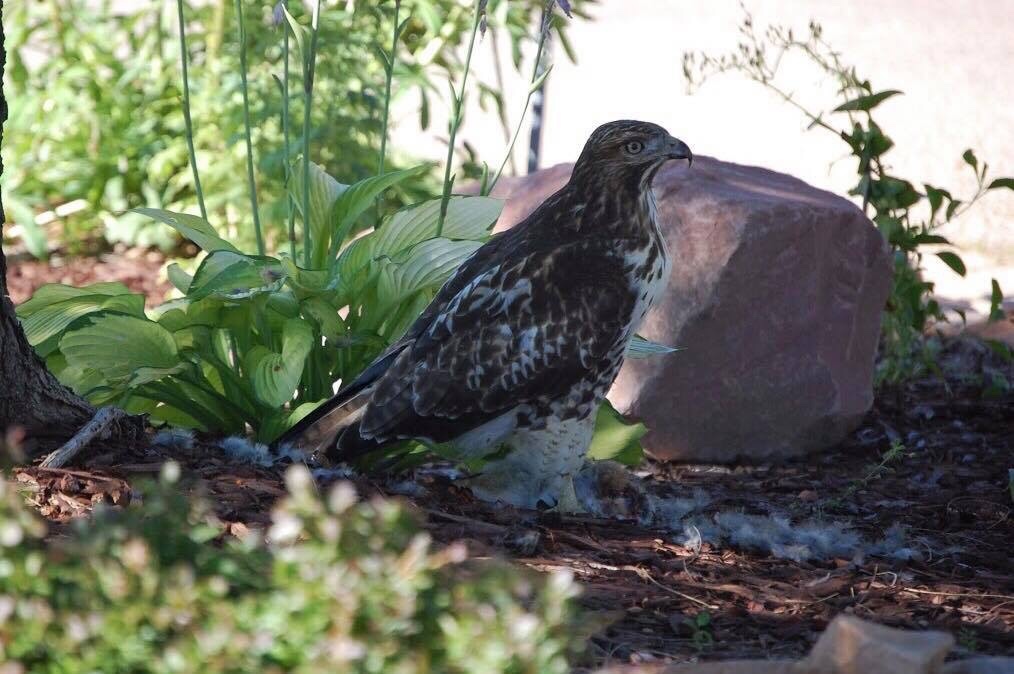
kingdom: Animalia
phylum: Chordata
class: Aves
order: Accipitriformes
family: Accipitridae
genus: Buteo
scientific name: Buteo jamaicensis
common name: Red-tailed hawk
